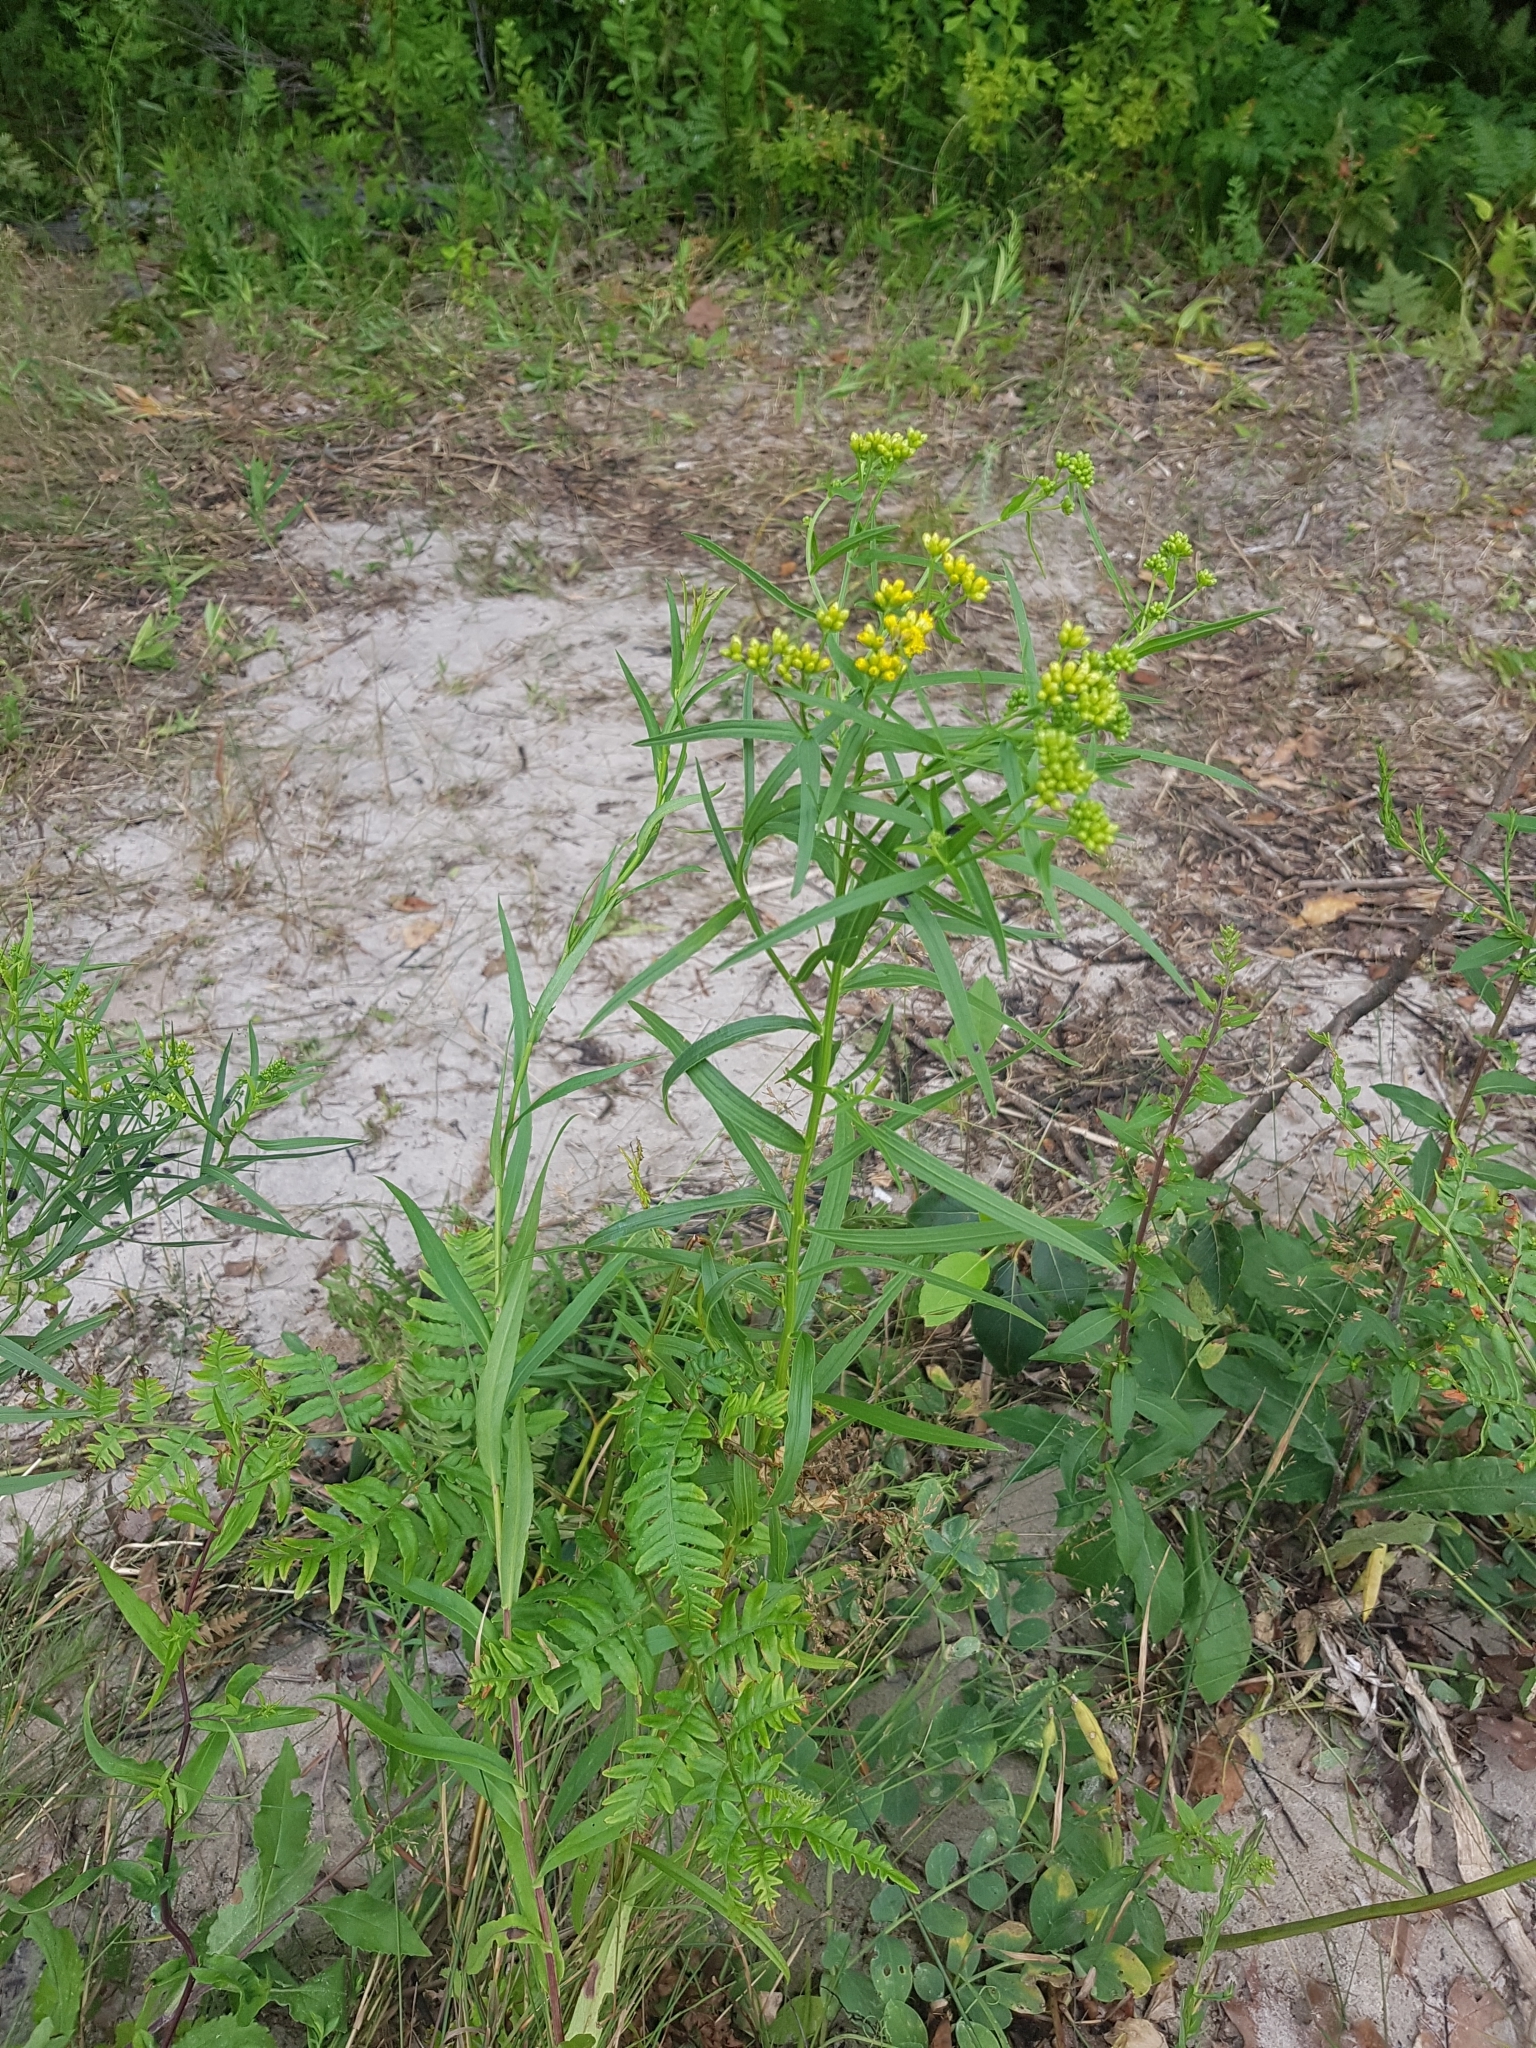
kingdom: Plantae
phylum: Tracheophyta
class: Magnoliopsida
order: Asterales
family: Asteraceae
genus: Euthamia
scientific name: Euthamia graminifolia
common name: Common goldentop
